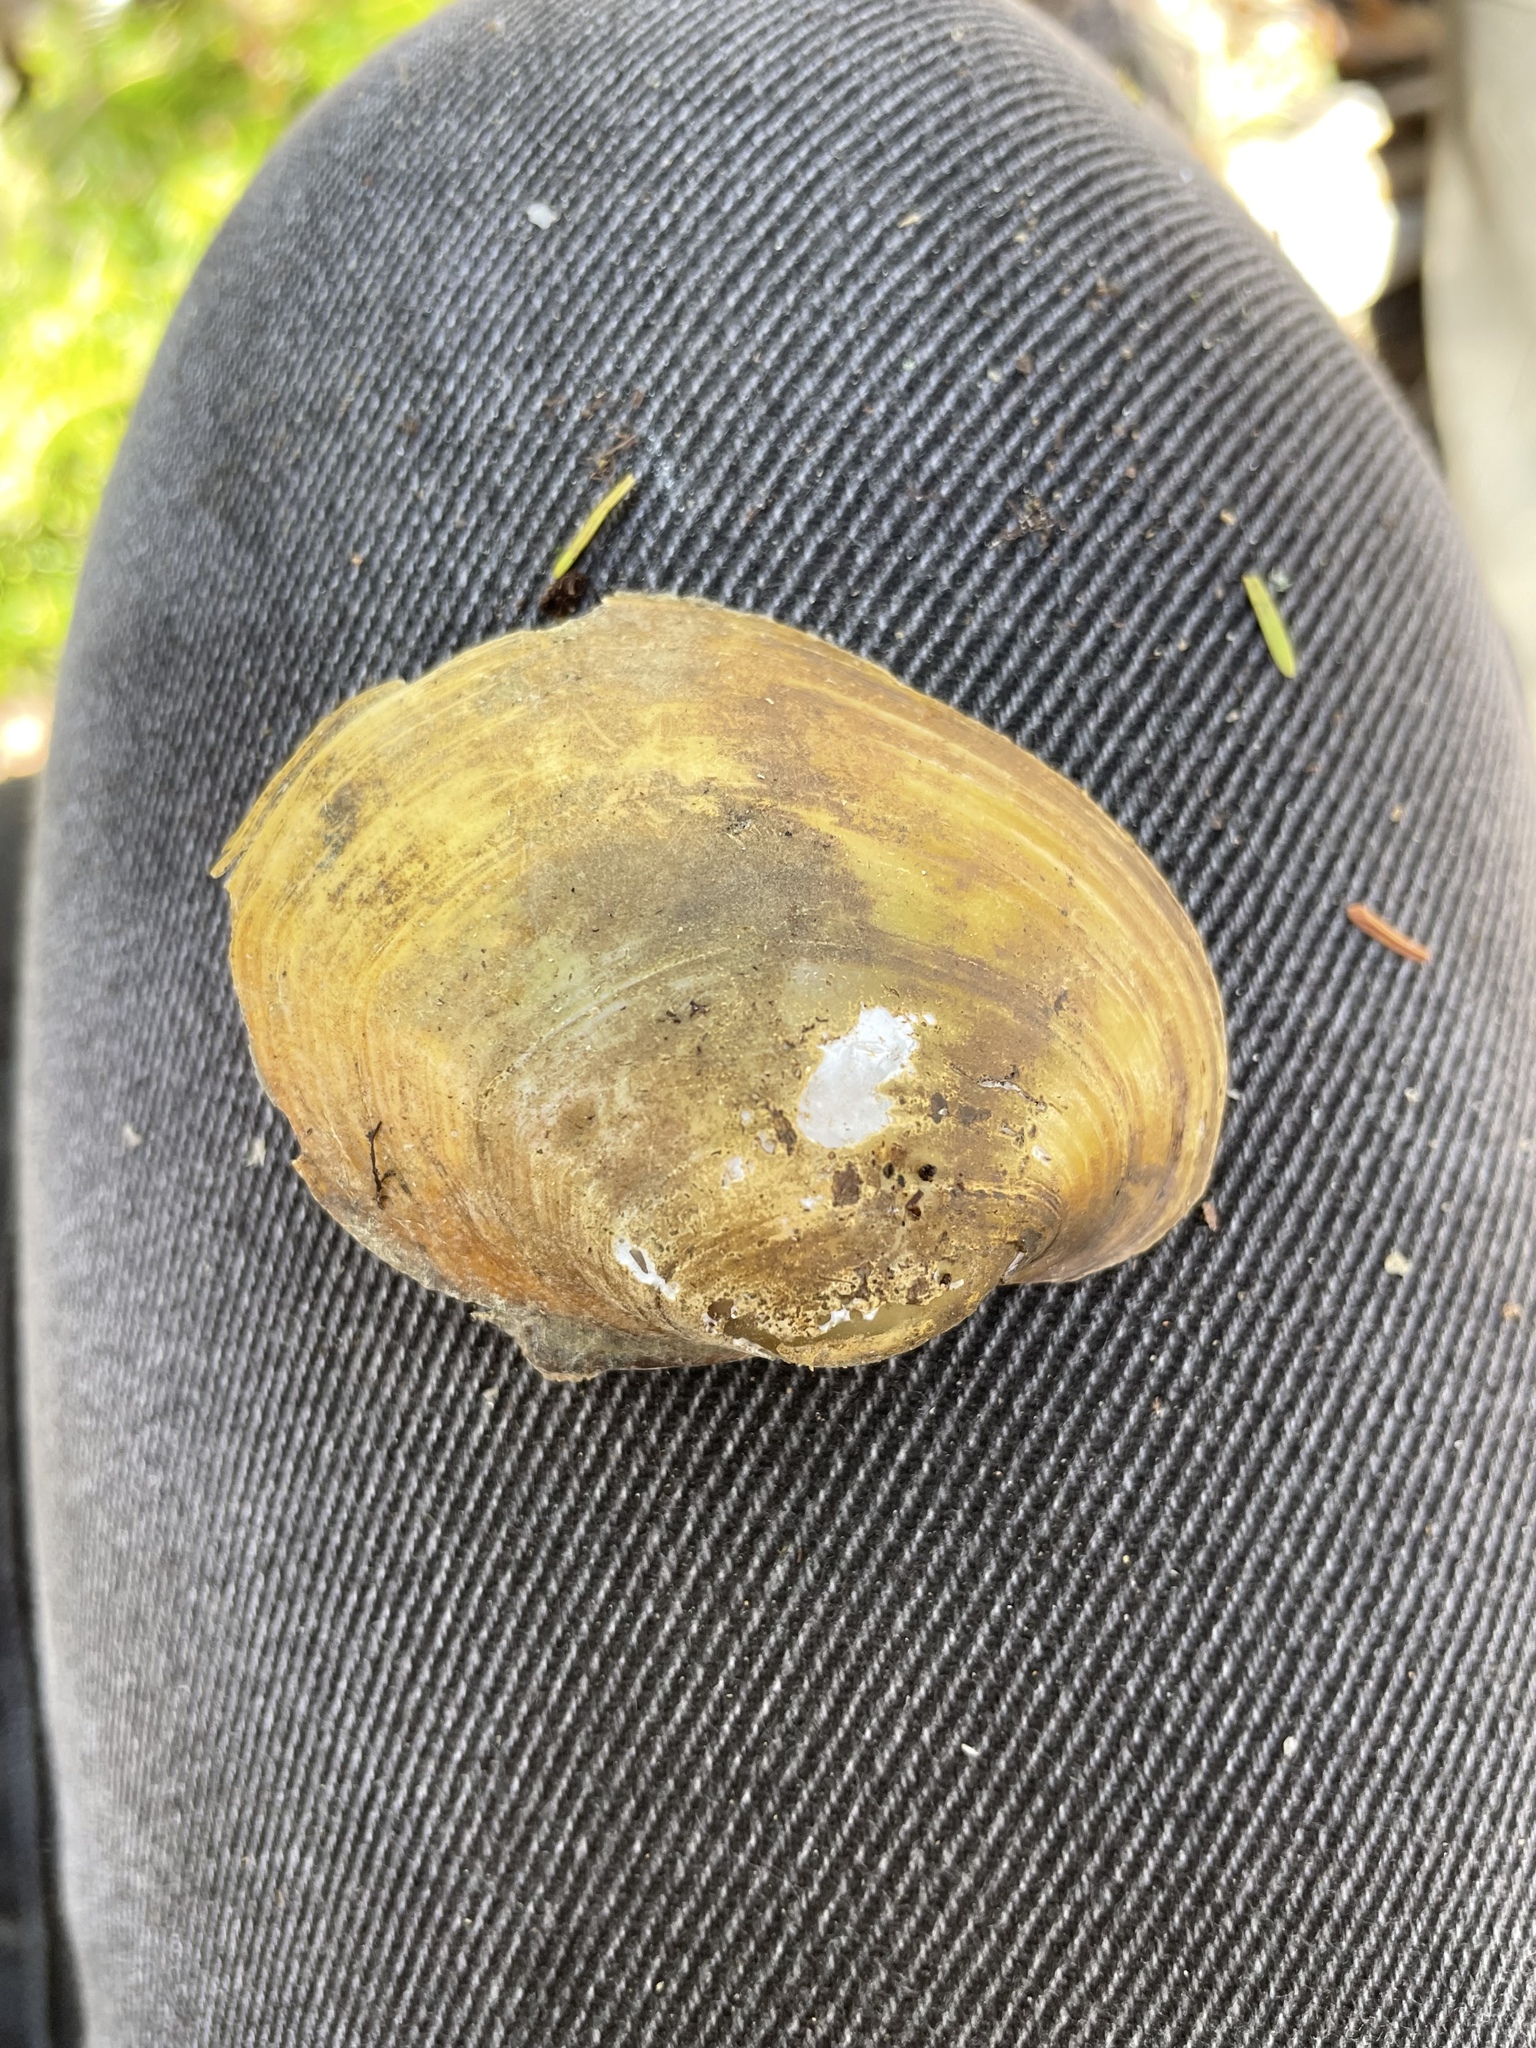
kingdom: Animalia
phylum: Mollusca
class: Bivalvia
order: Unionida
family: Unionidae
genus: Lampsilis
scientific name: Lampsilis cariosa
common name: Yellow lampmussel
